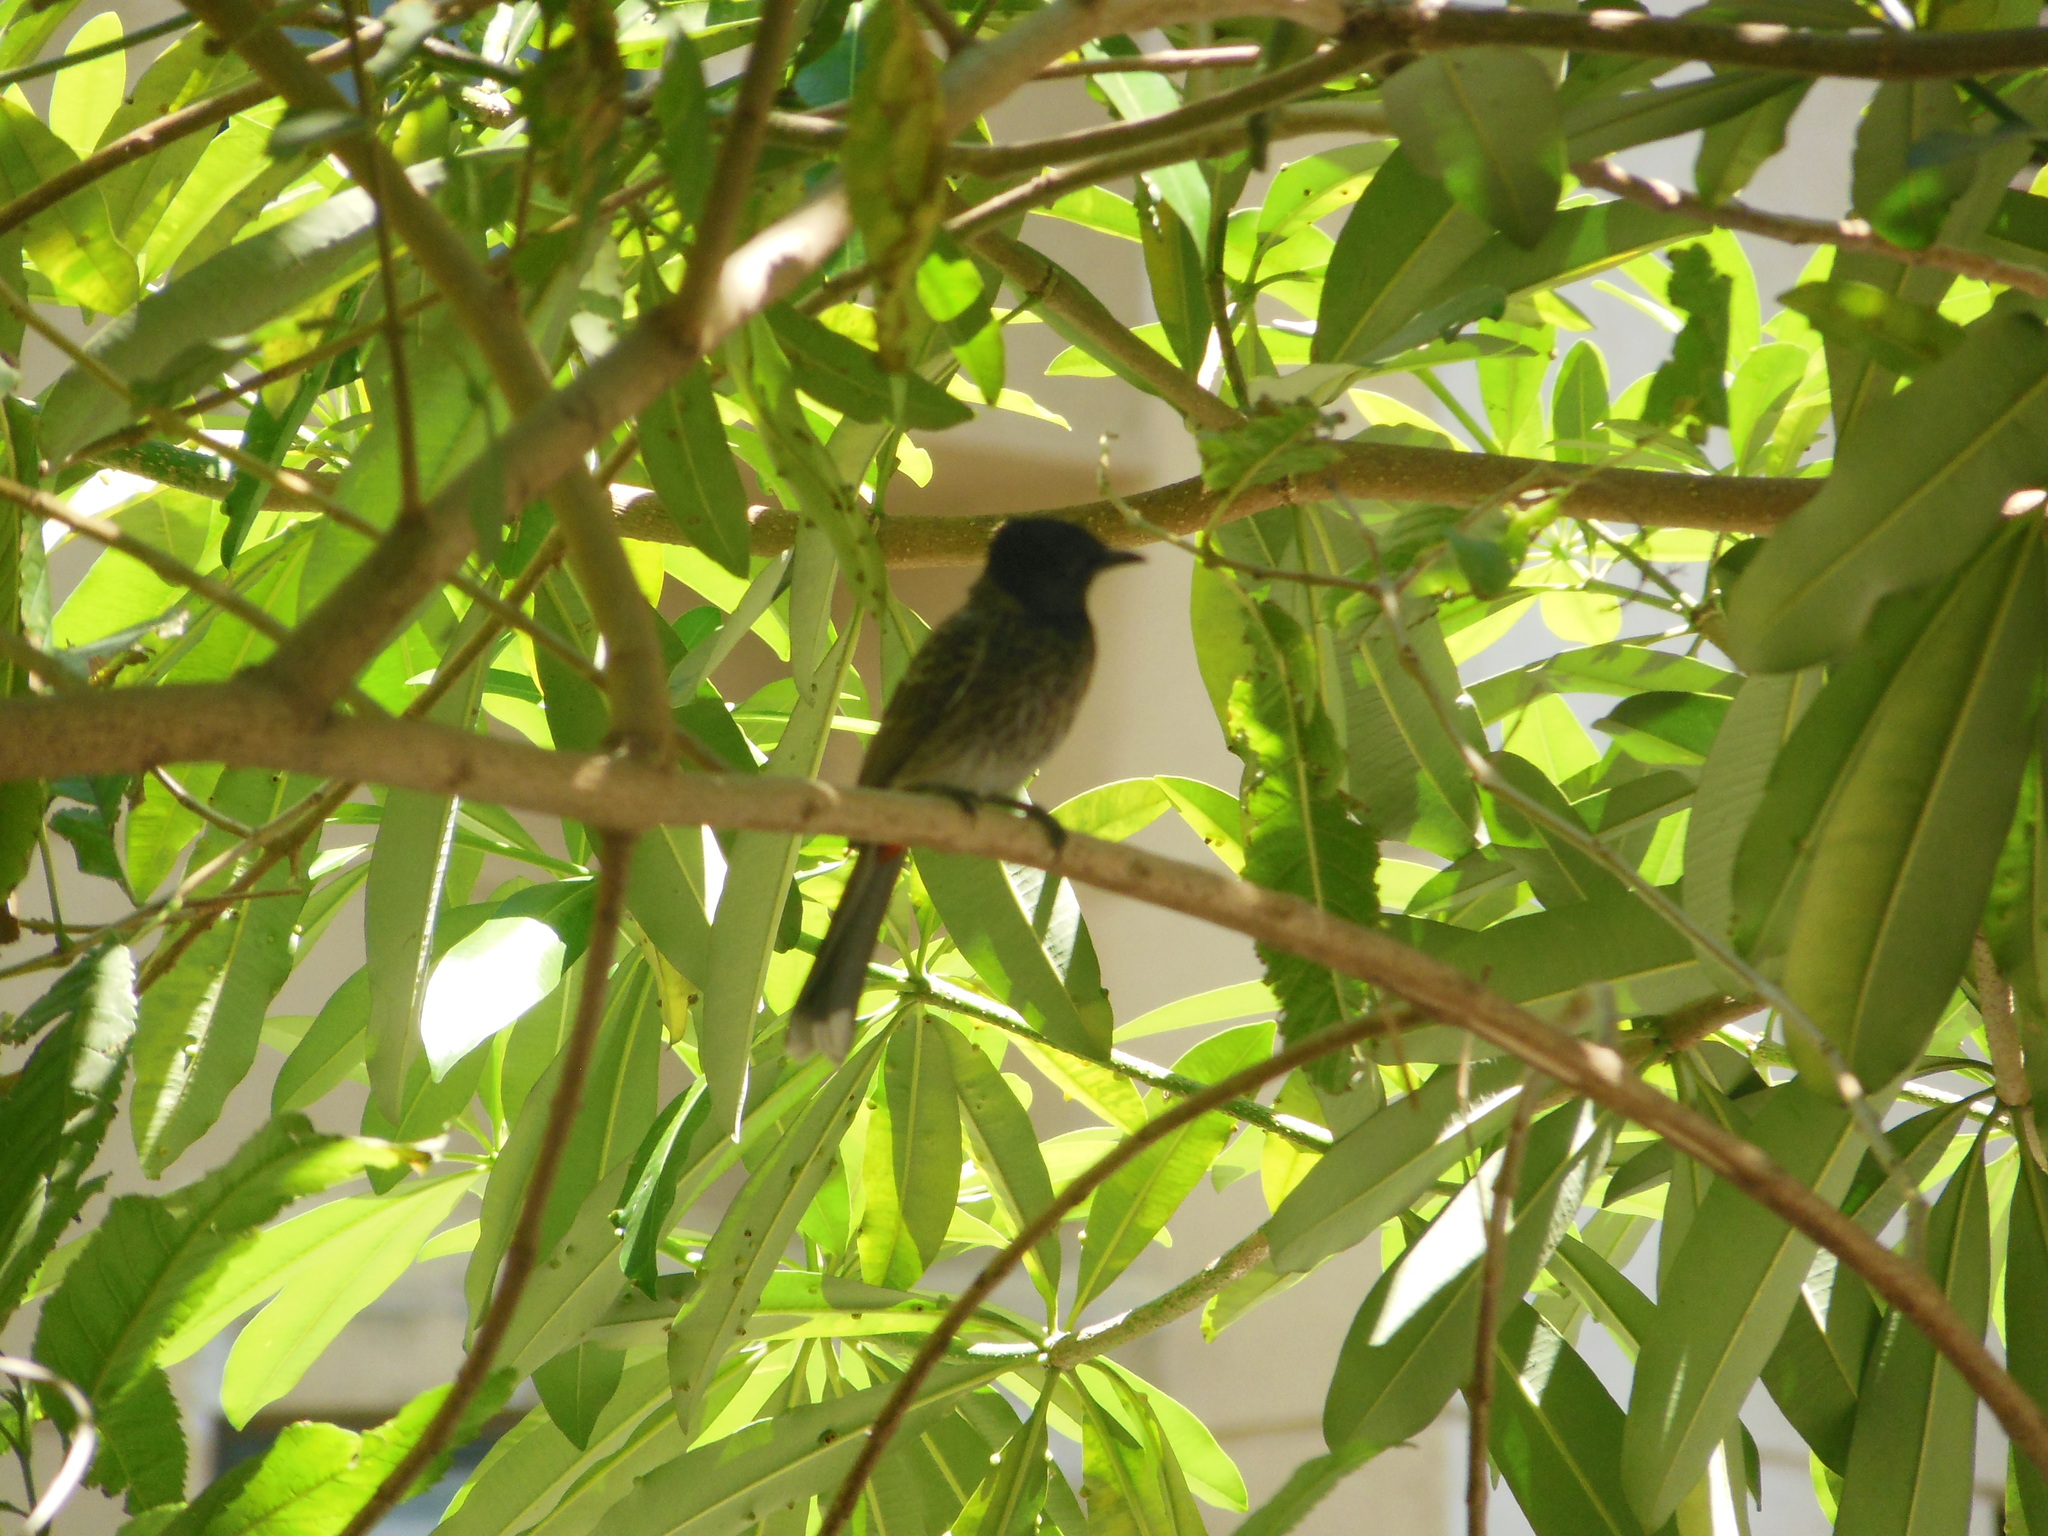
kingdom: Animalia
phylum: Chordata
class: Aves
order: Passeriformes
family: Pycnonotidae
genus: Pycnonotus
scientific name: Pycnonotus cafer
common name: Red-vented bulbul
